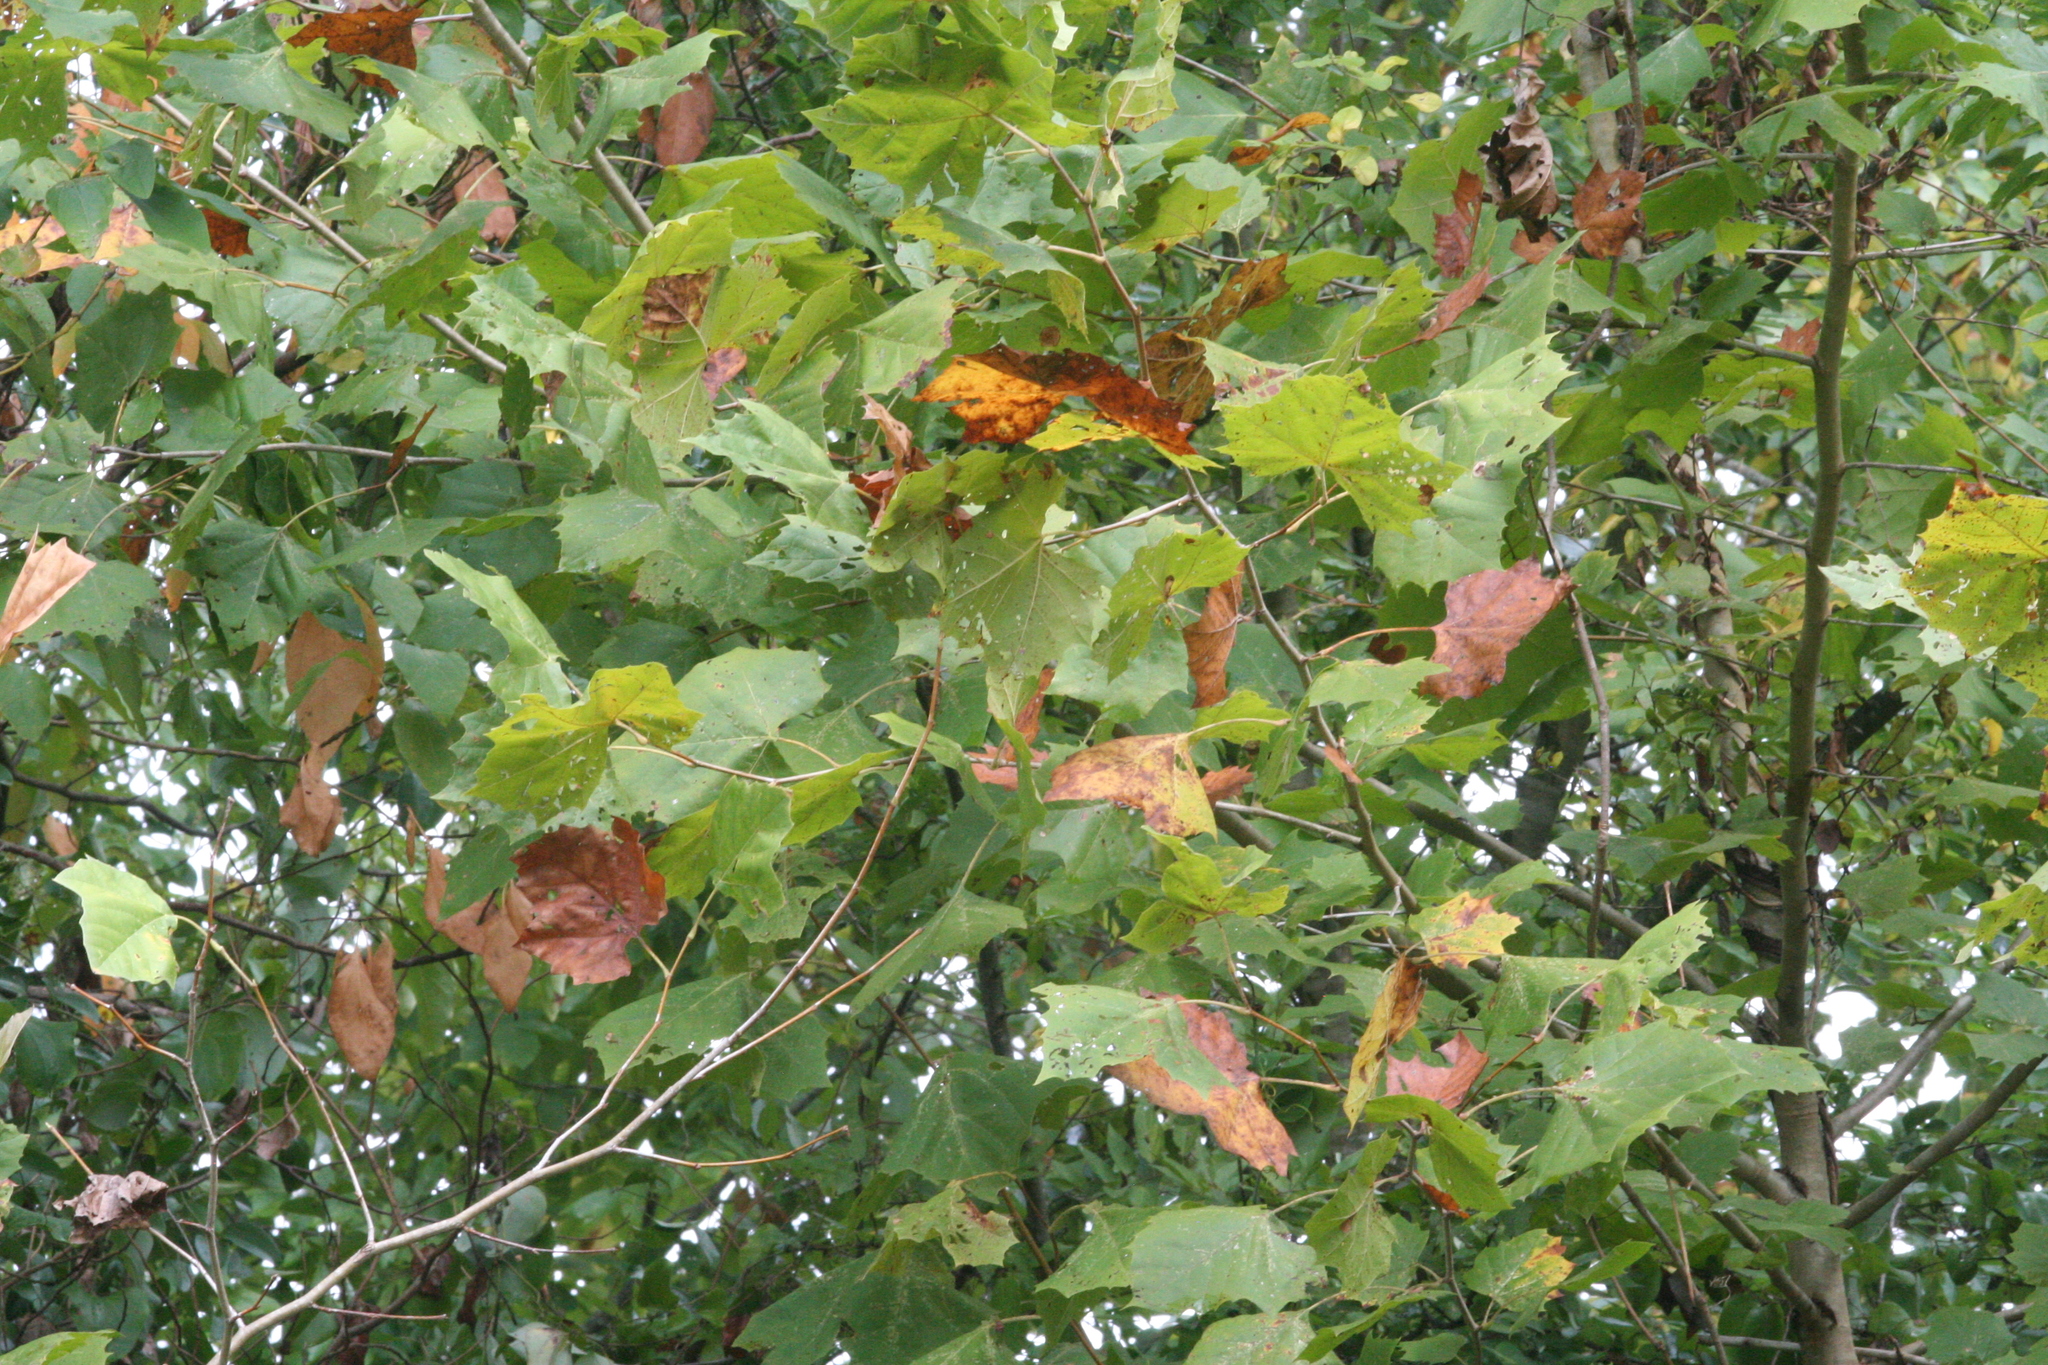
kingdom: Plantae
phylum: Tracheophyta
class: Magnoliopsida
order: Proteales
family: Platanaceae
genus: Platanus
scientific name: Platanus occidentalis
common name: American sycamore
